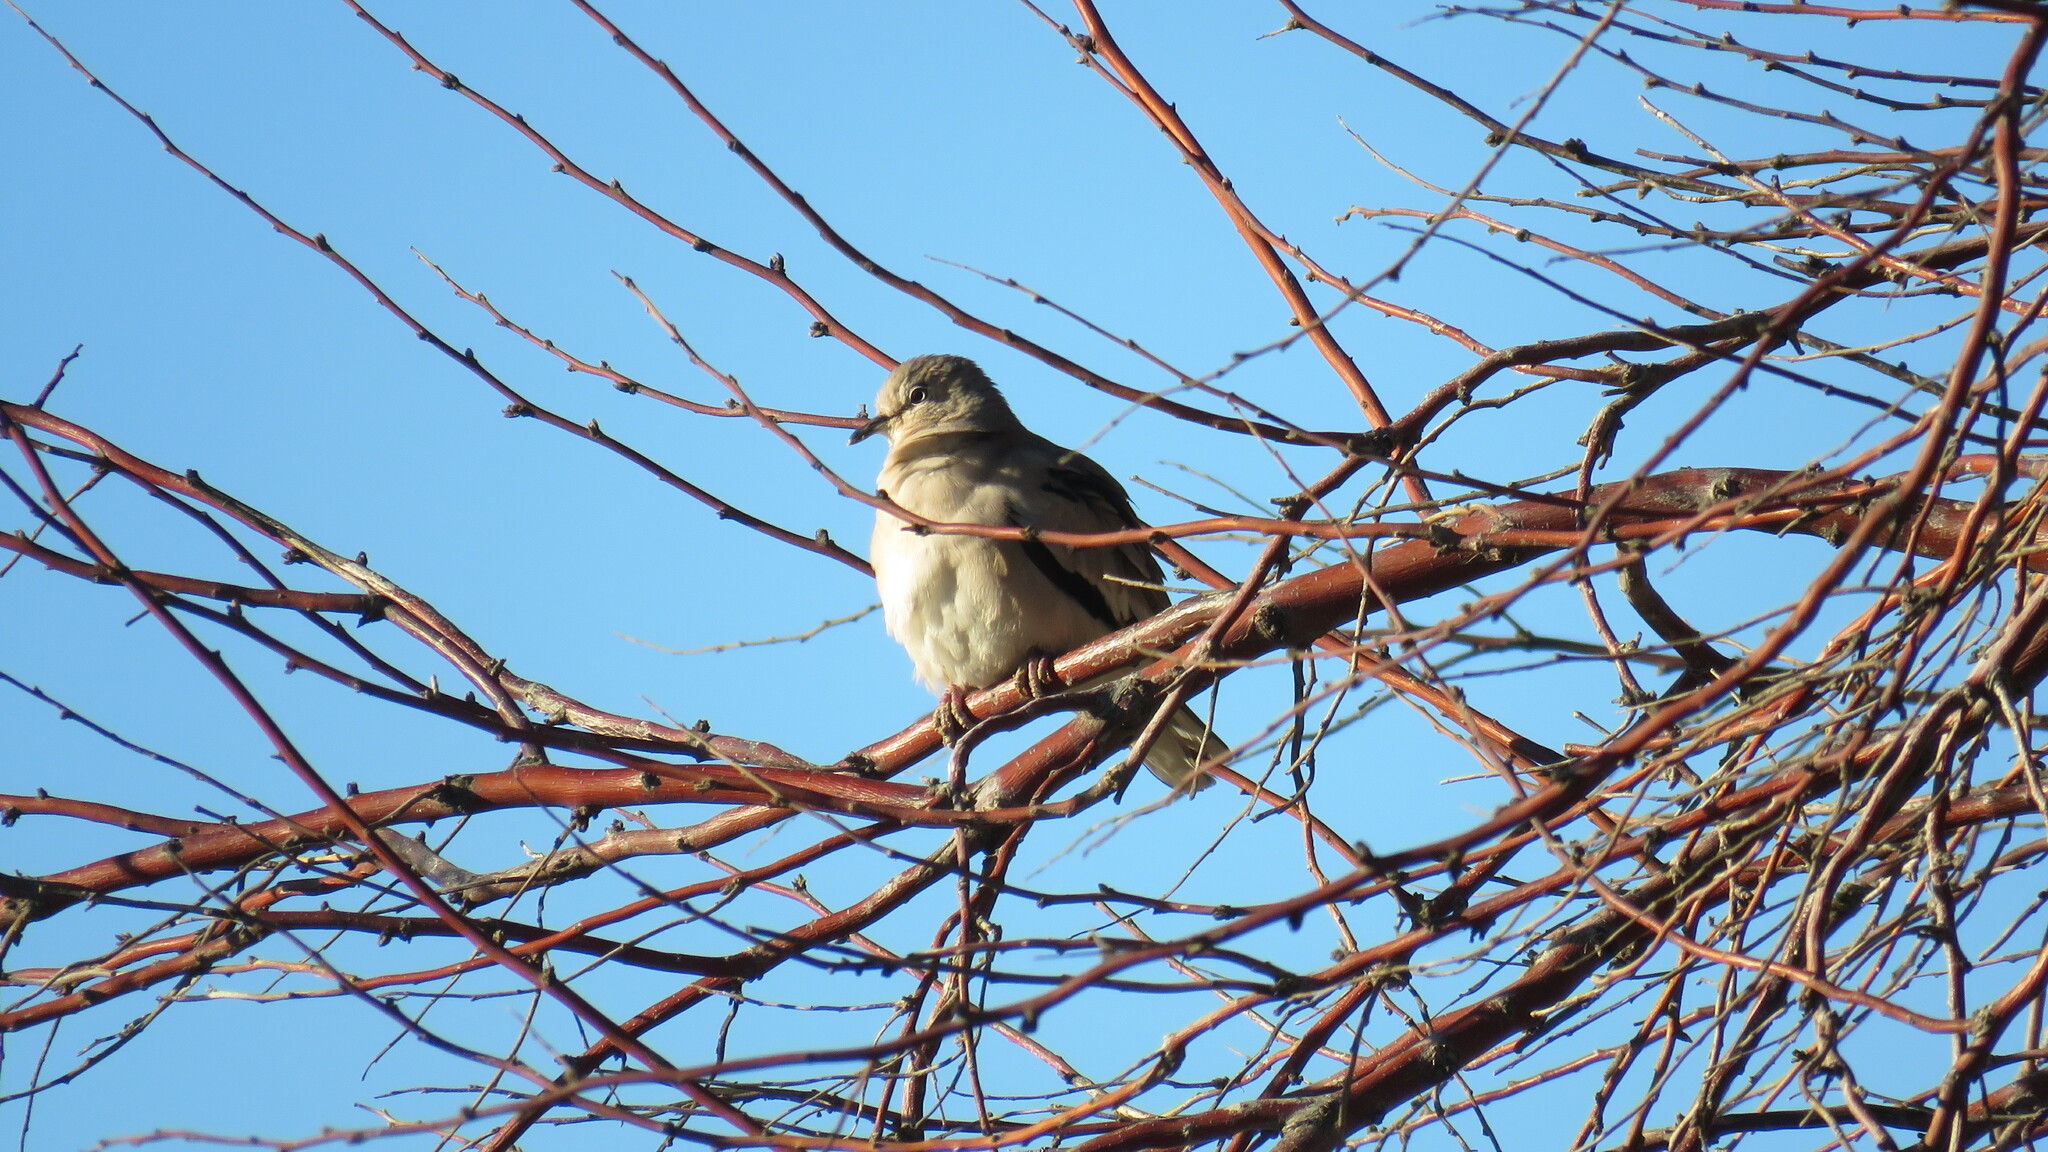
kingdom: Animalia
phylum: Chordata
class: Aves
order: Columbiformes
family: Columbidae
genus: Columbina
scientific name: Columbina picui
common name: Picui ground dove
